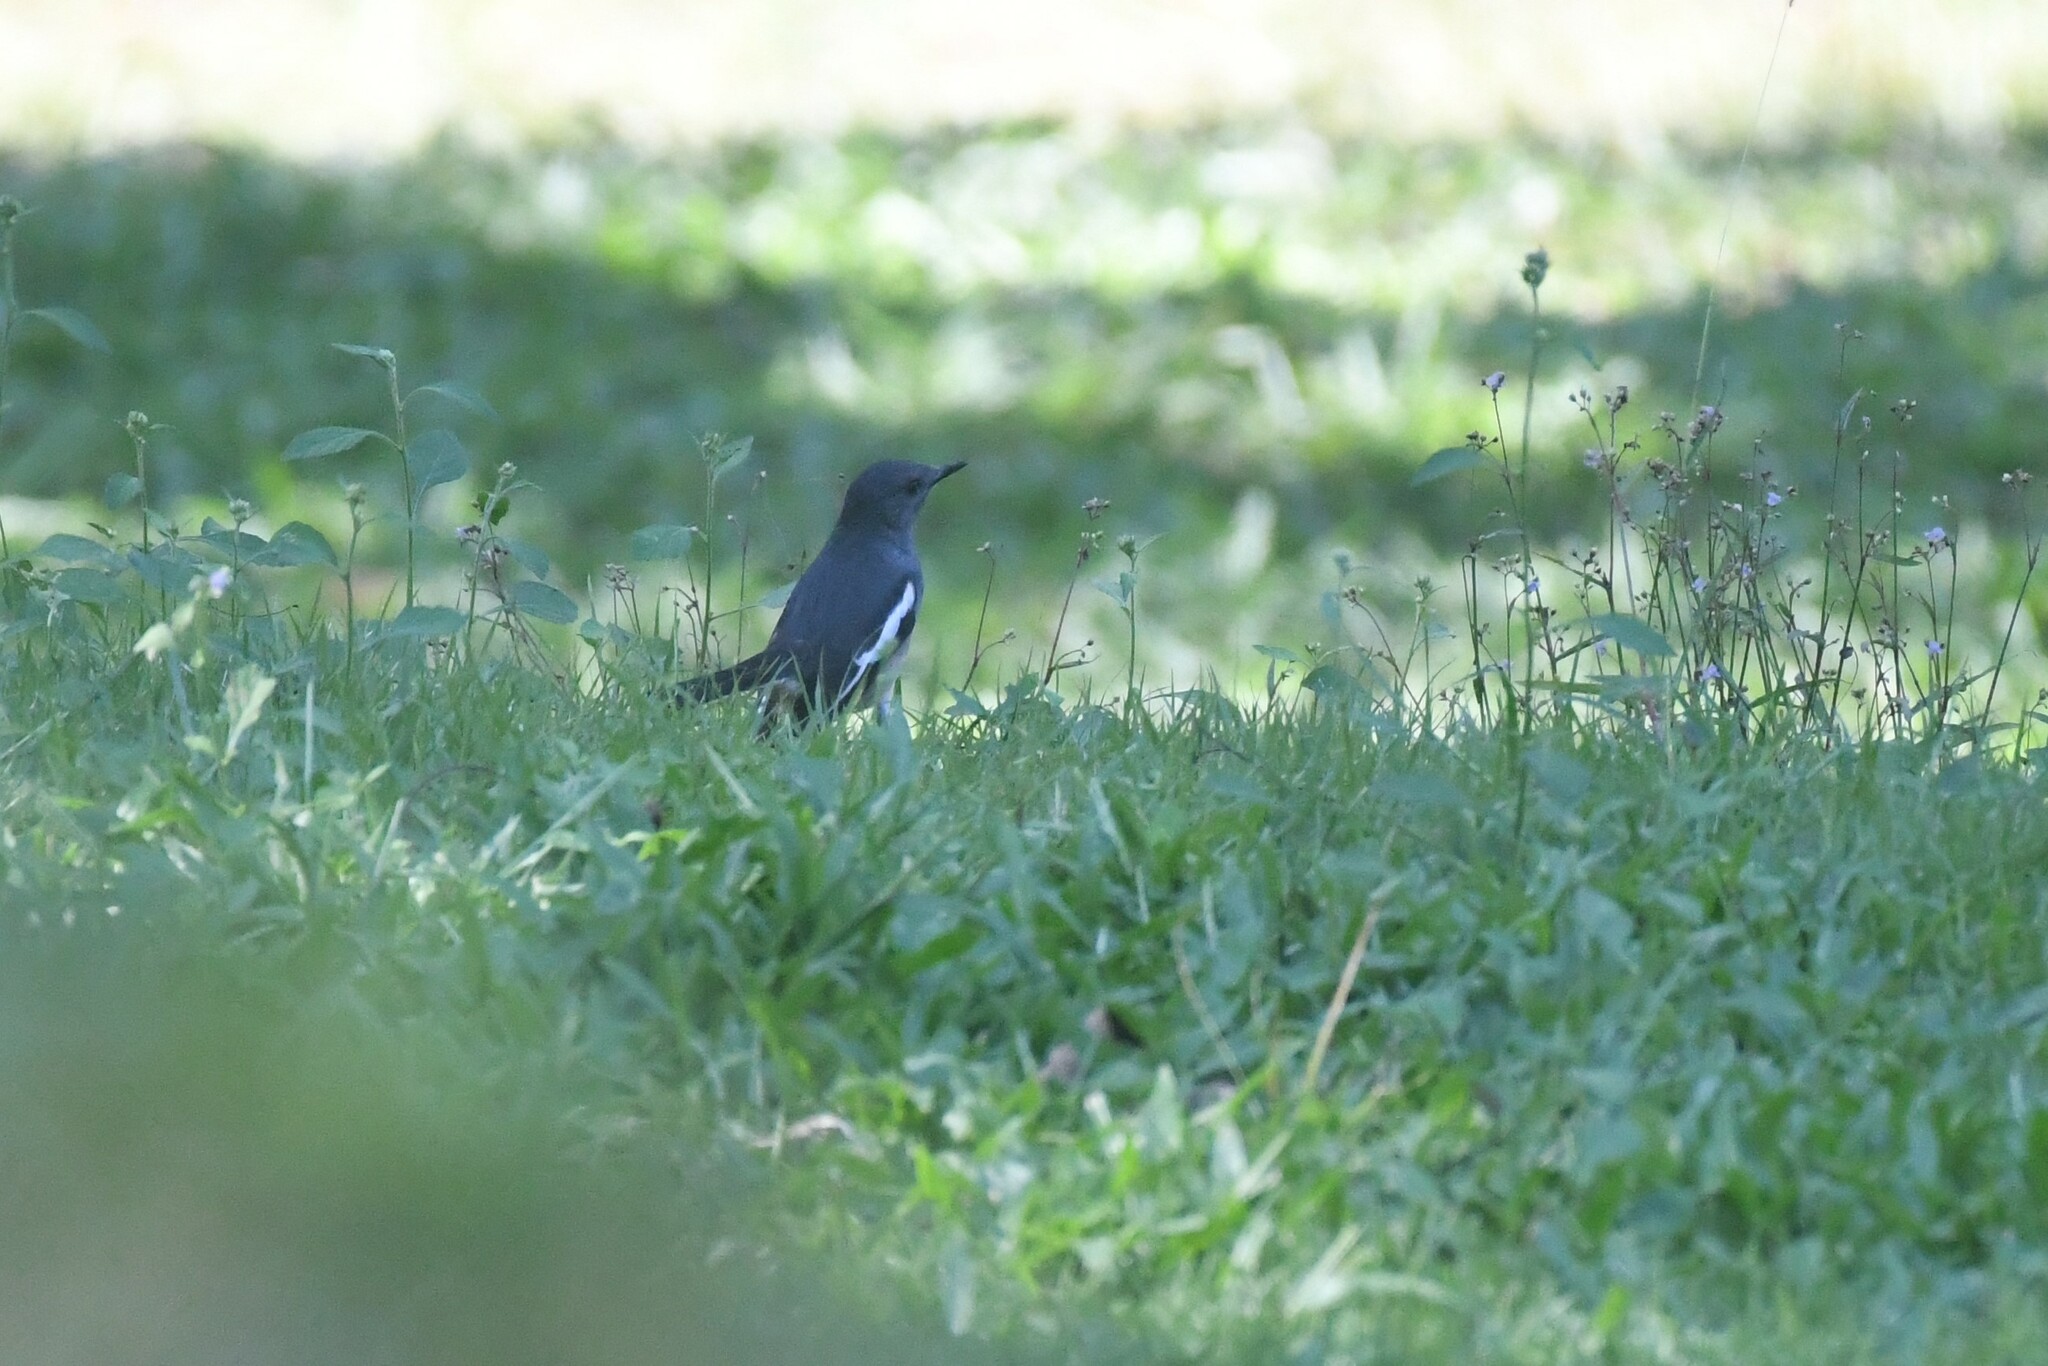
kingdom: Animalia
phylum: Chordata
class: Aves
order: Passeriformes
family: Muscicapidae
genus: Copsychus
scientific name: Copsychus saularis
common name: Oriental magpie-robin
